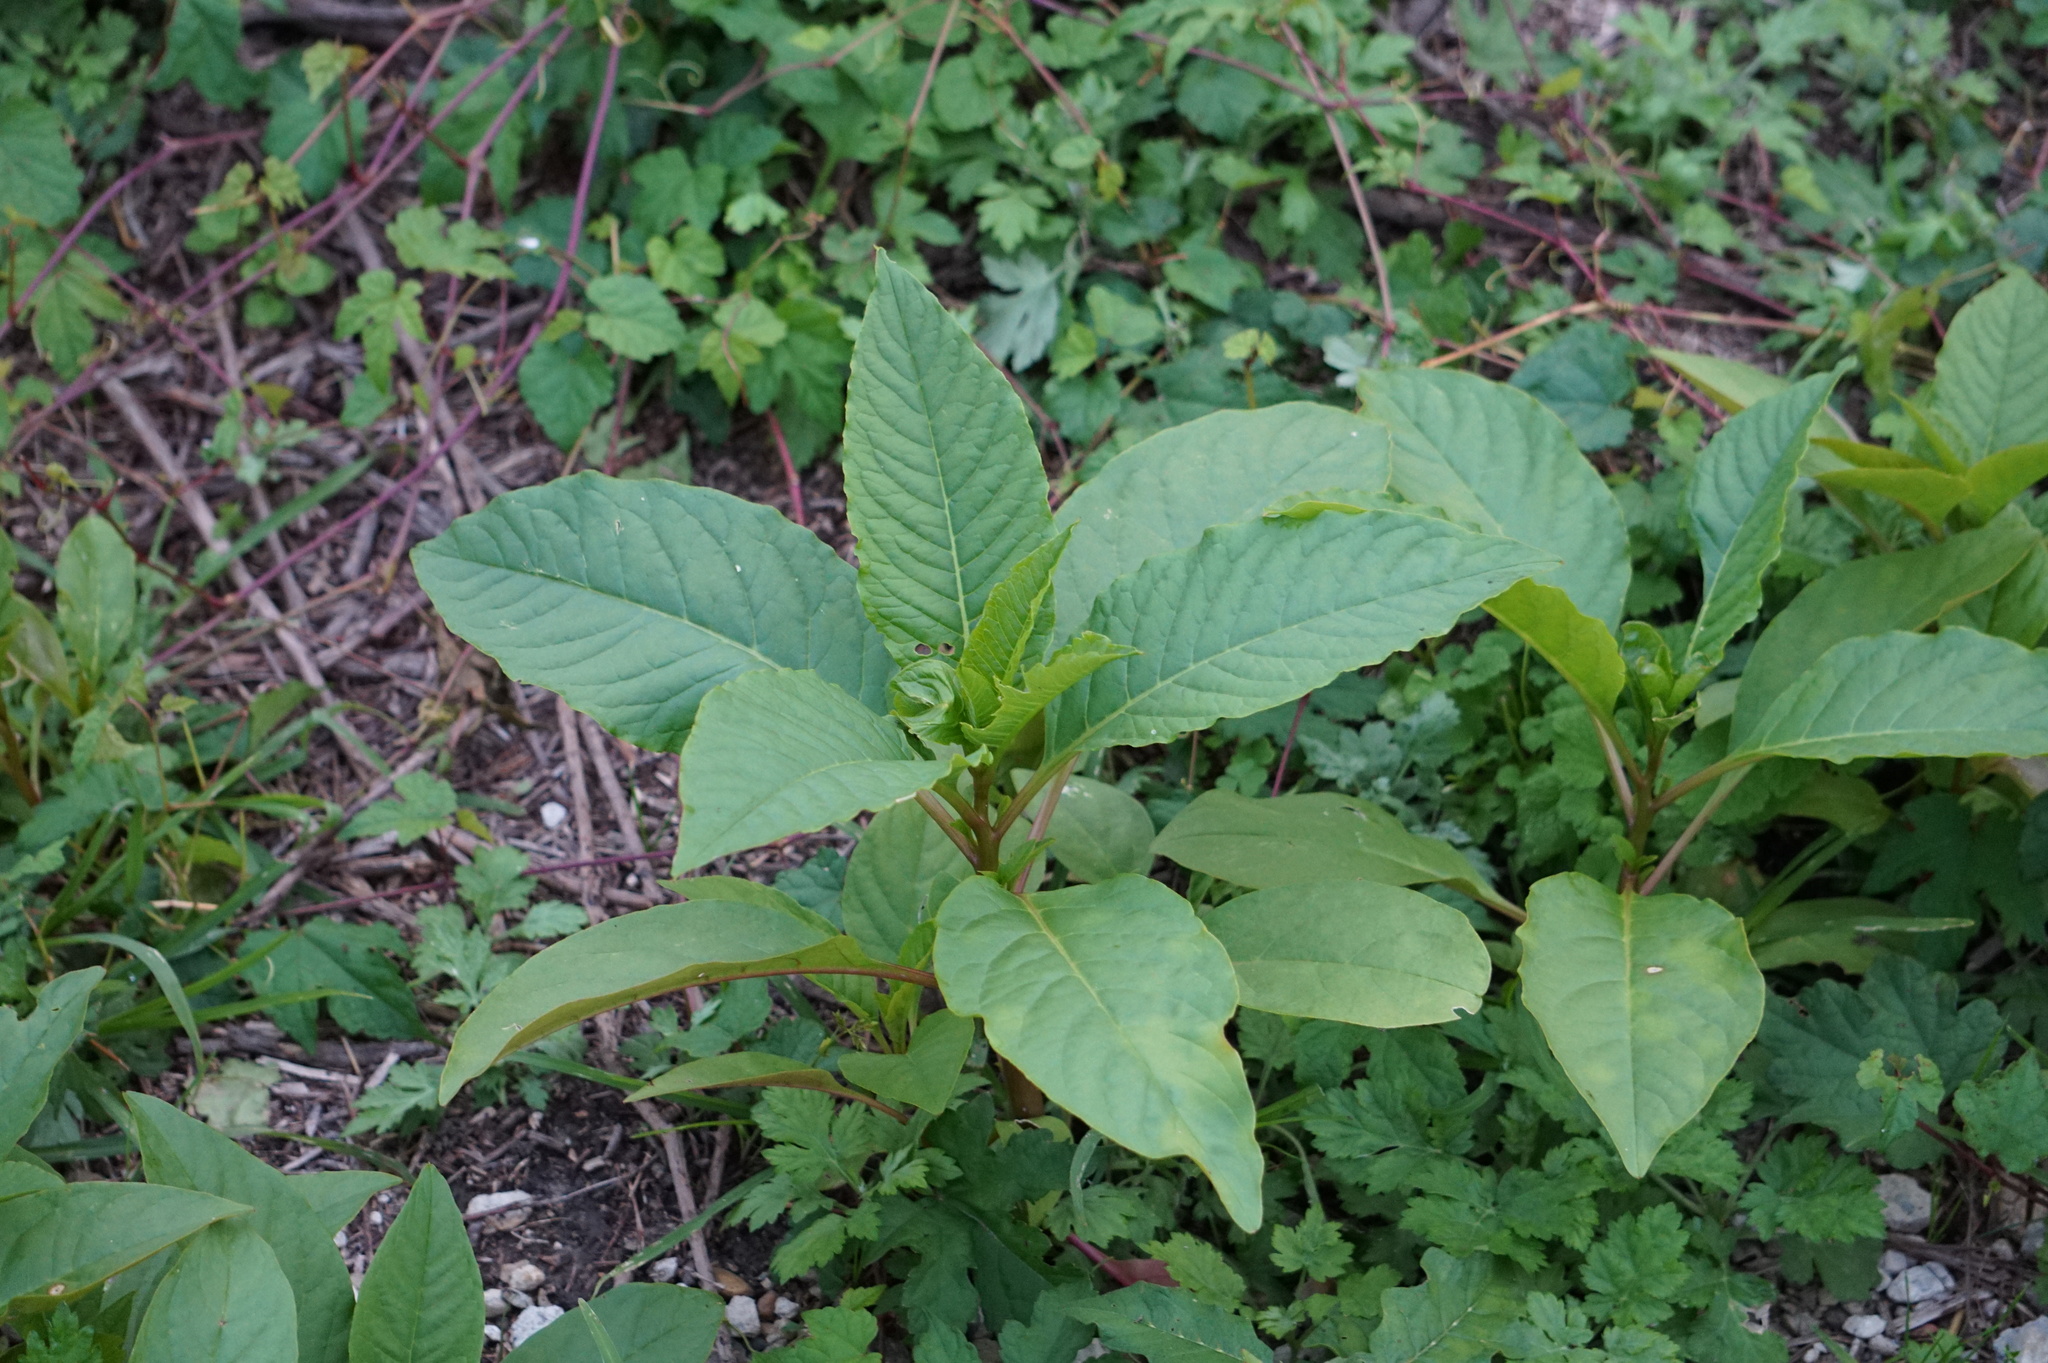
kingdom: Plantae
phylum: Tracheophyta
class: Magnoliopsida
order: Caryophyllales
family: Phytolaccaceae
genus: Phytolacca
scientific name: Phytolacca americana
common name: American pokeweed
